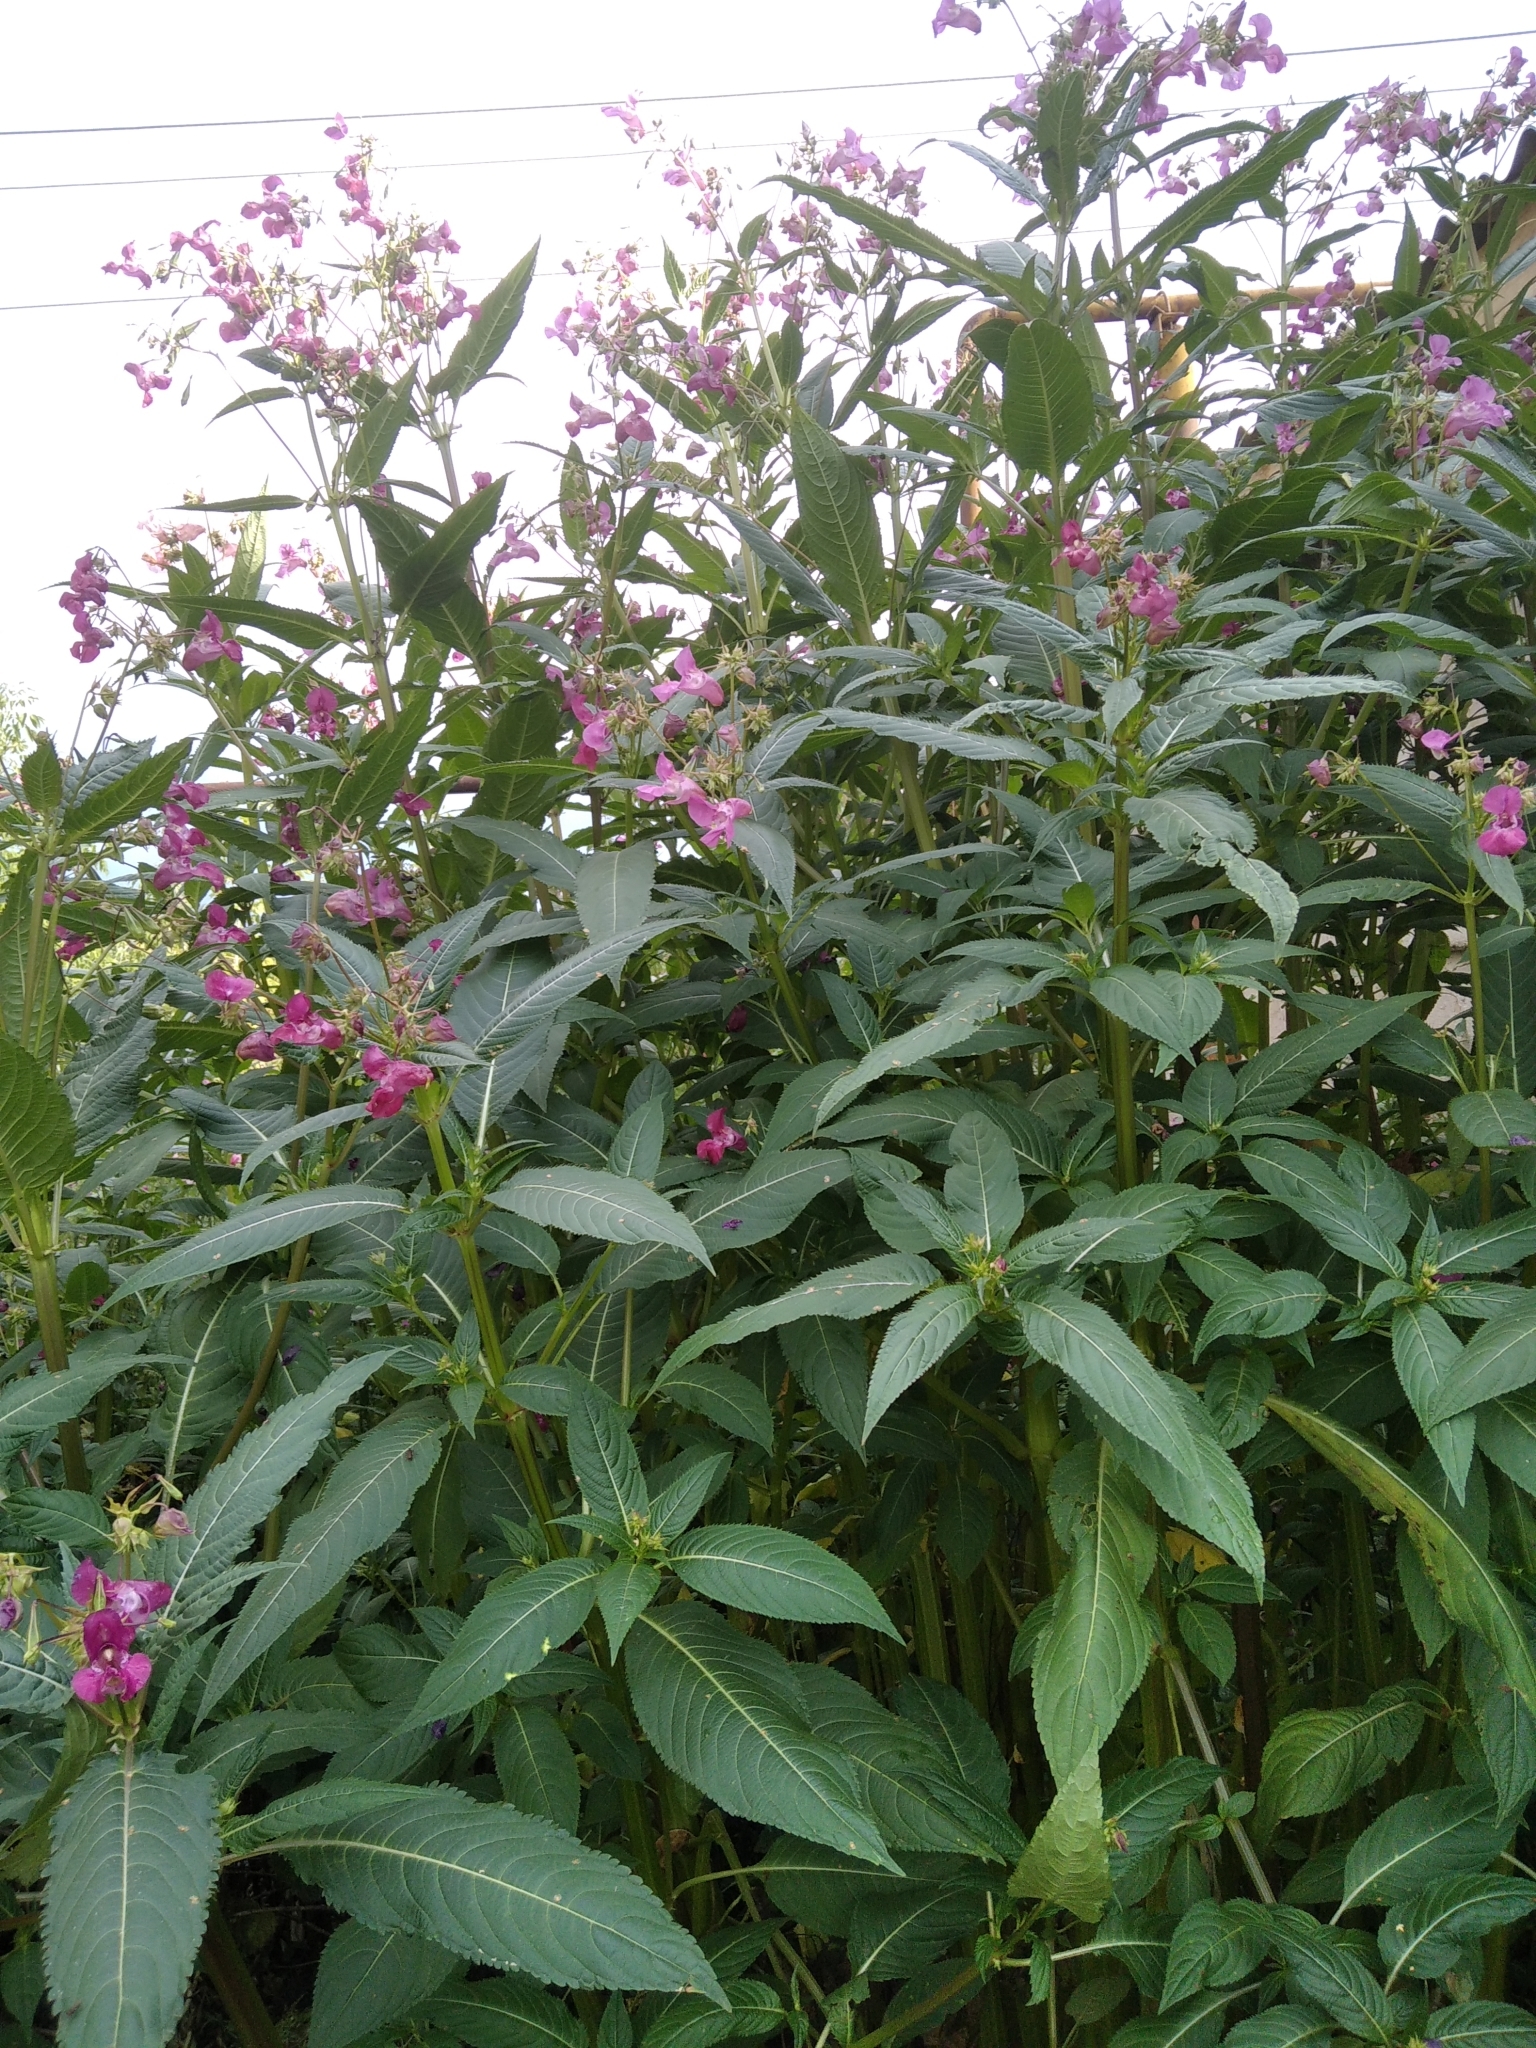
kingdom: Plantae
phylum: Tracheophyta
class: Magnoliopsida
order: Ericales
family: Balsaminaceae
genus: Impatiens
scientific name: Impatiens glandulifera
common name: Himalayan balsam
